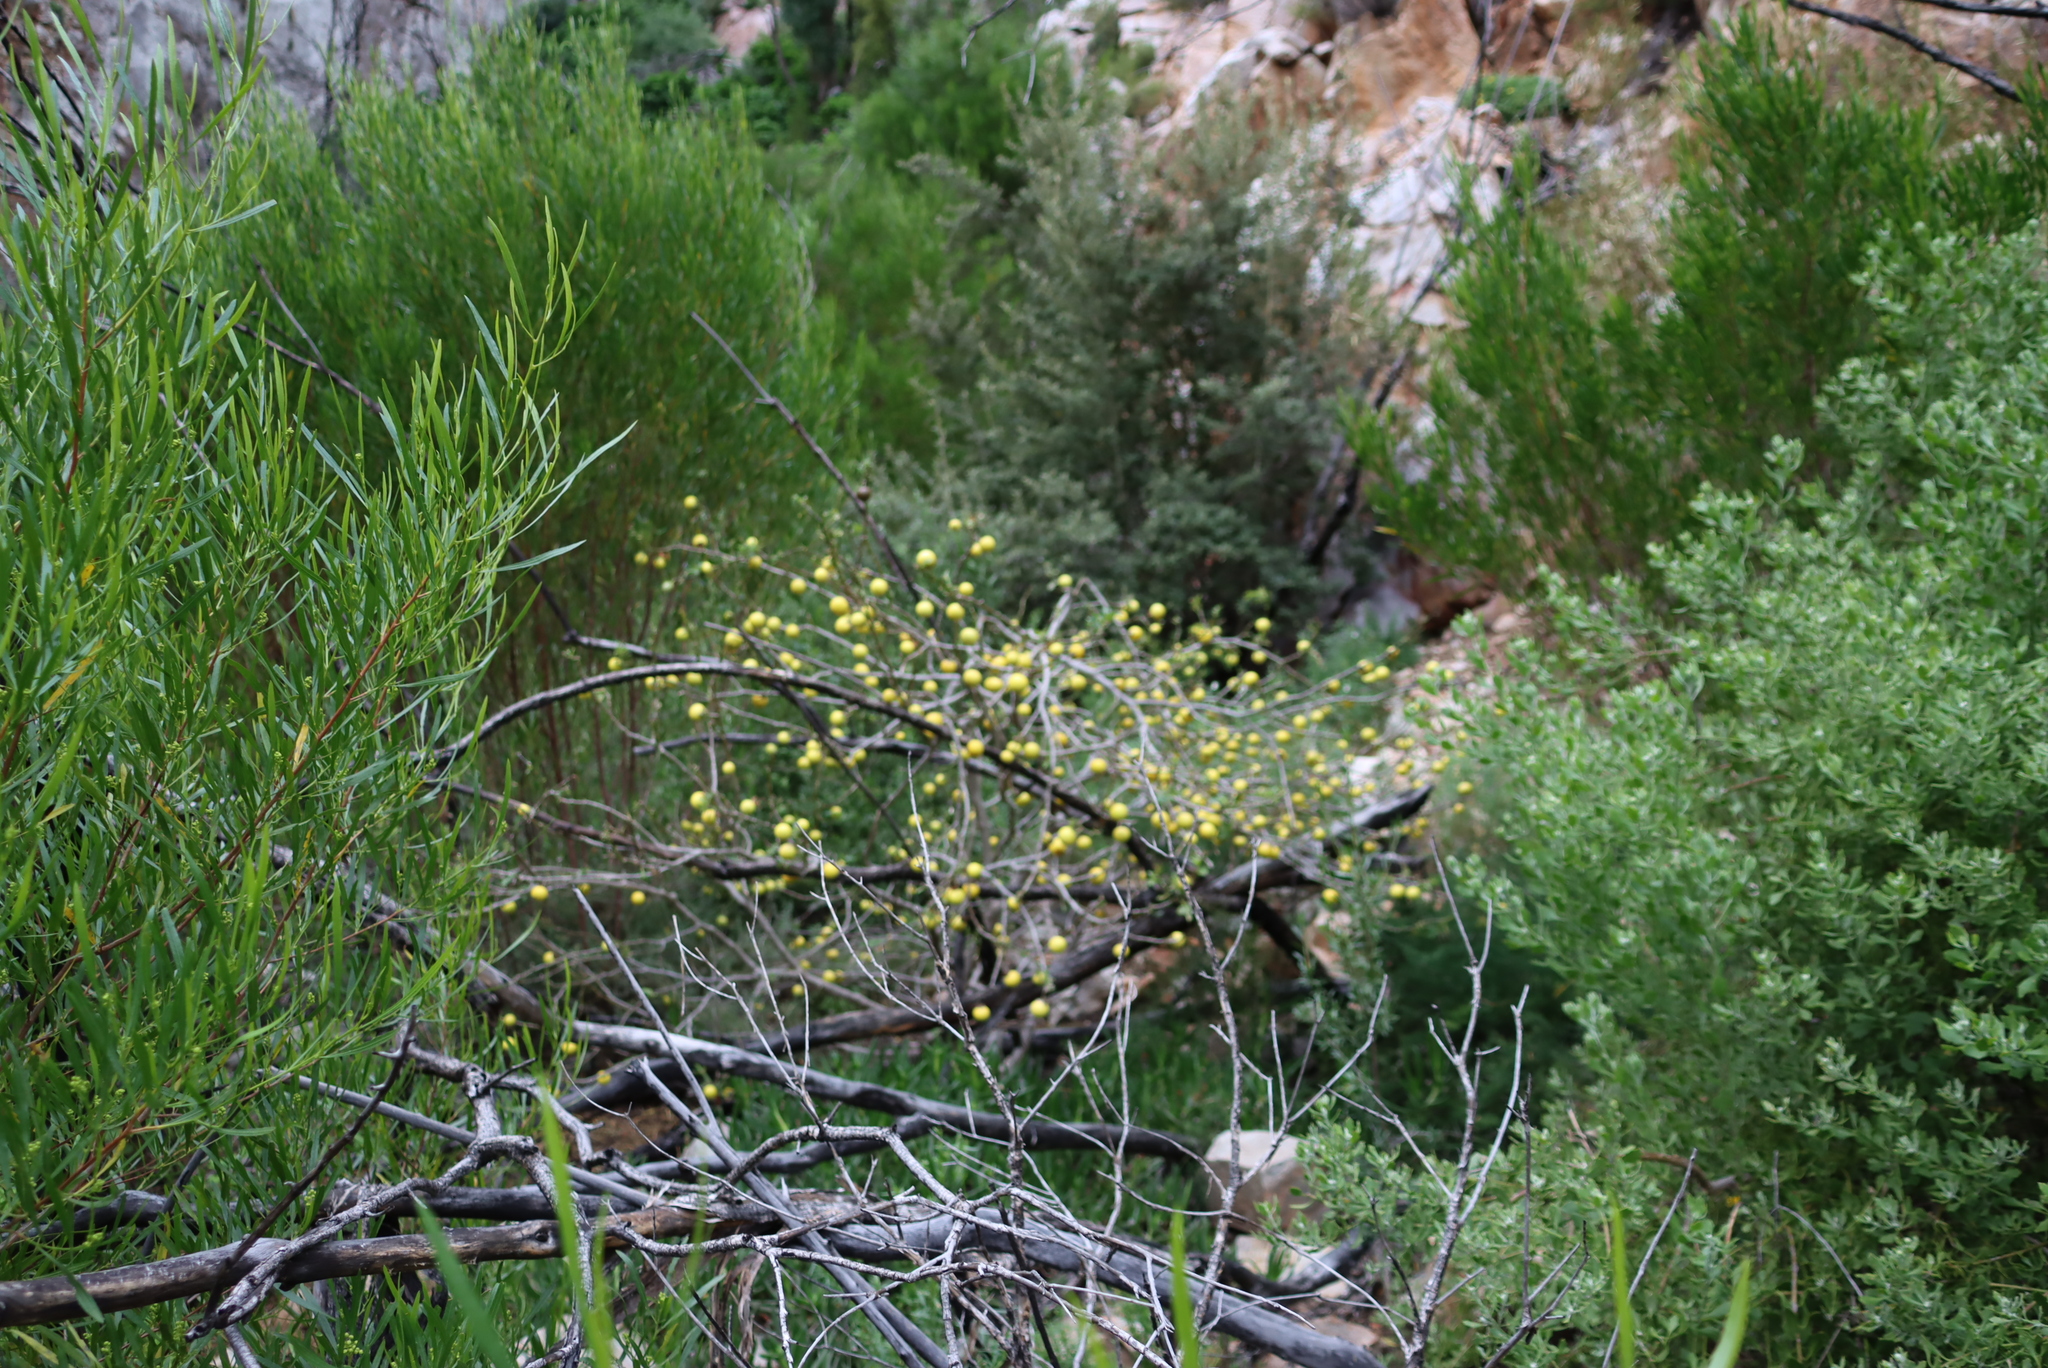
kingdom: Plantae
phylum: Tracheophyta
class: Magnoliopsida
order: Solanales
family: Solanaceae
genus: Solanum
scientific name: Solanum linnaeanum
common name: Nightshade
